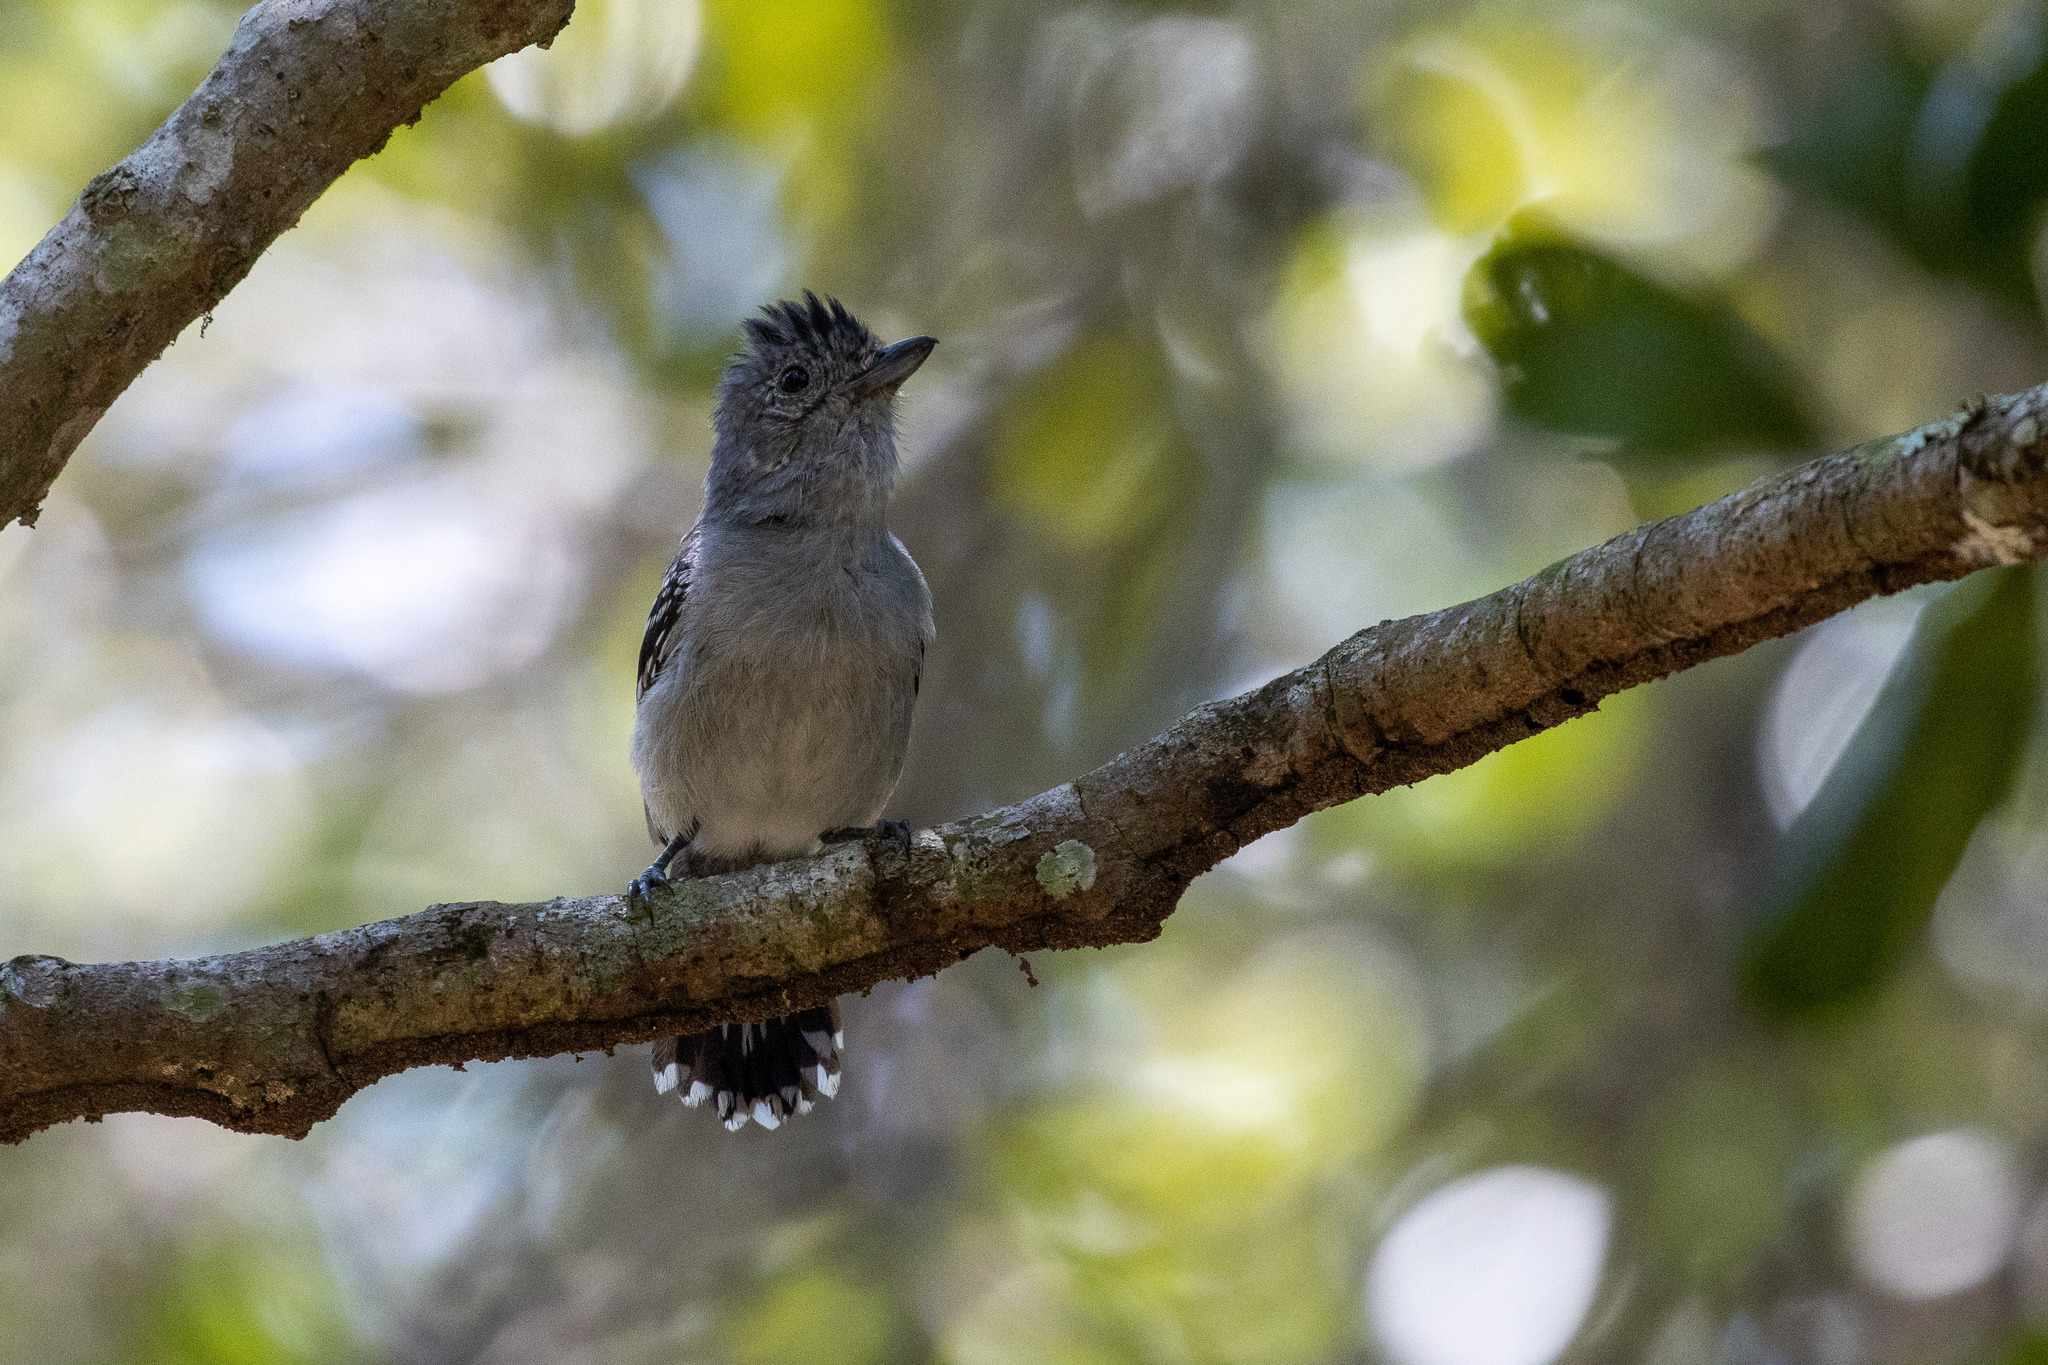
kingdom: Animalia
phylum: Chordata
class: Aves
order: Passeriformes
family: Thamnophilidae
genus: Thamnophilus
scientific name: Thamnophilus ambiguus
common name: Sooretama slaty antshrike
